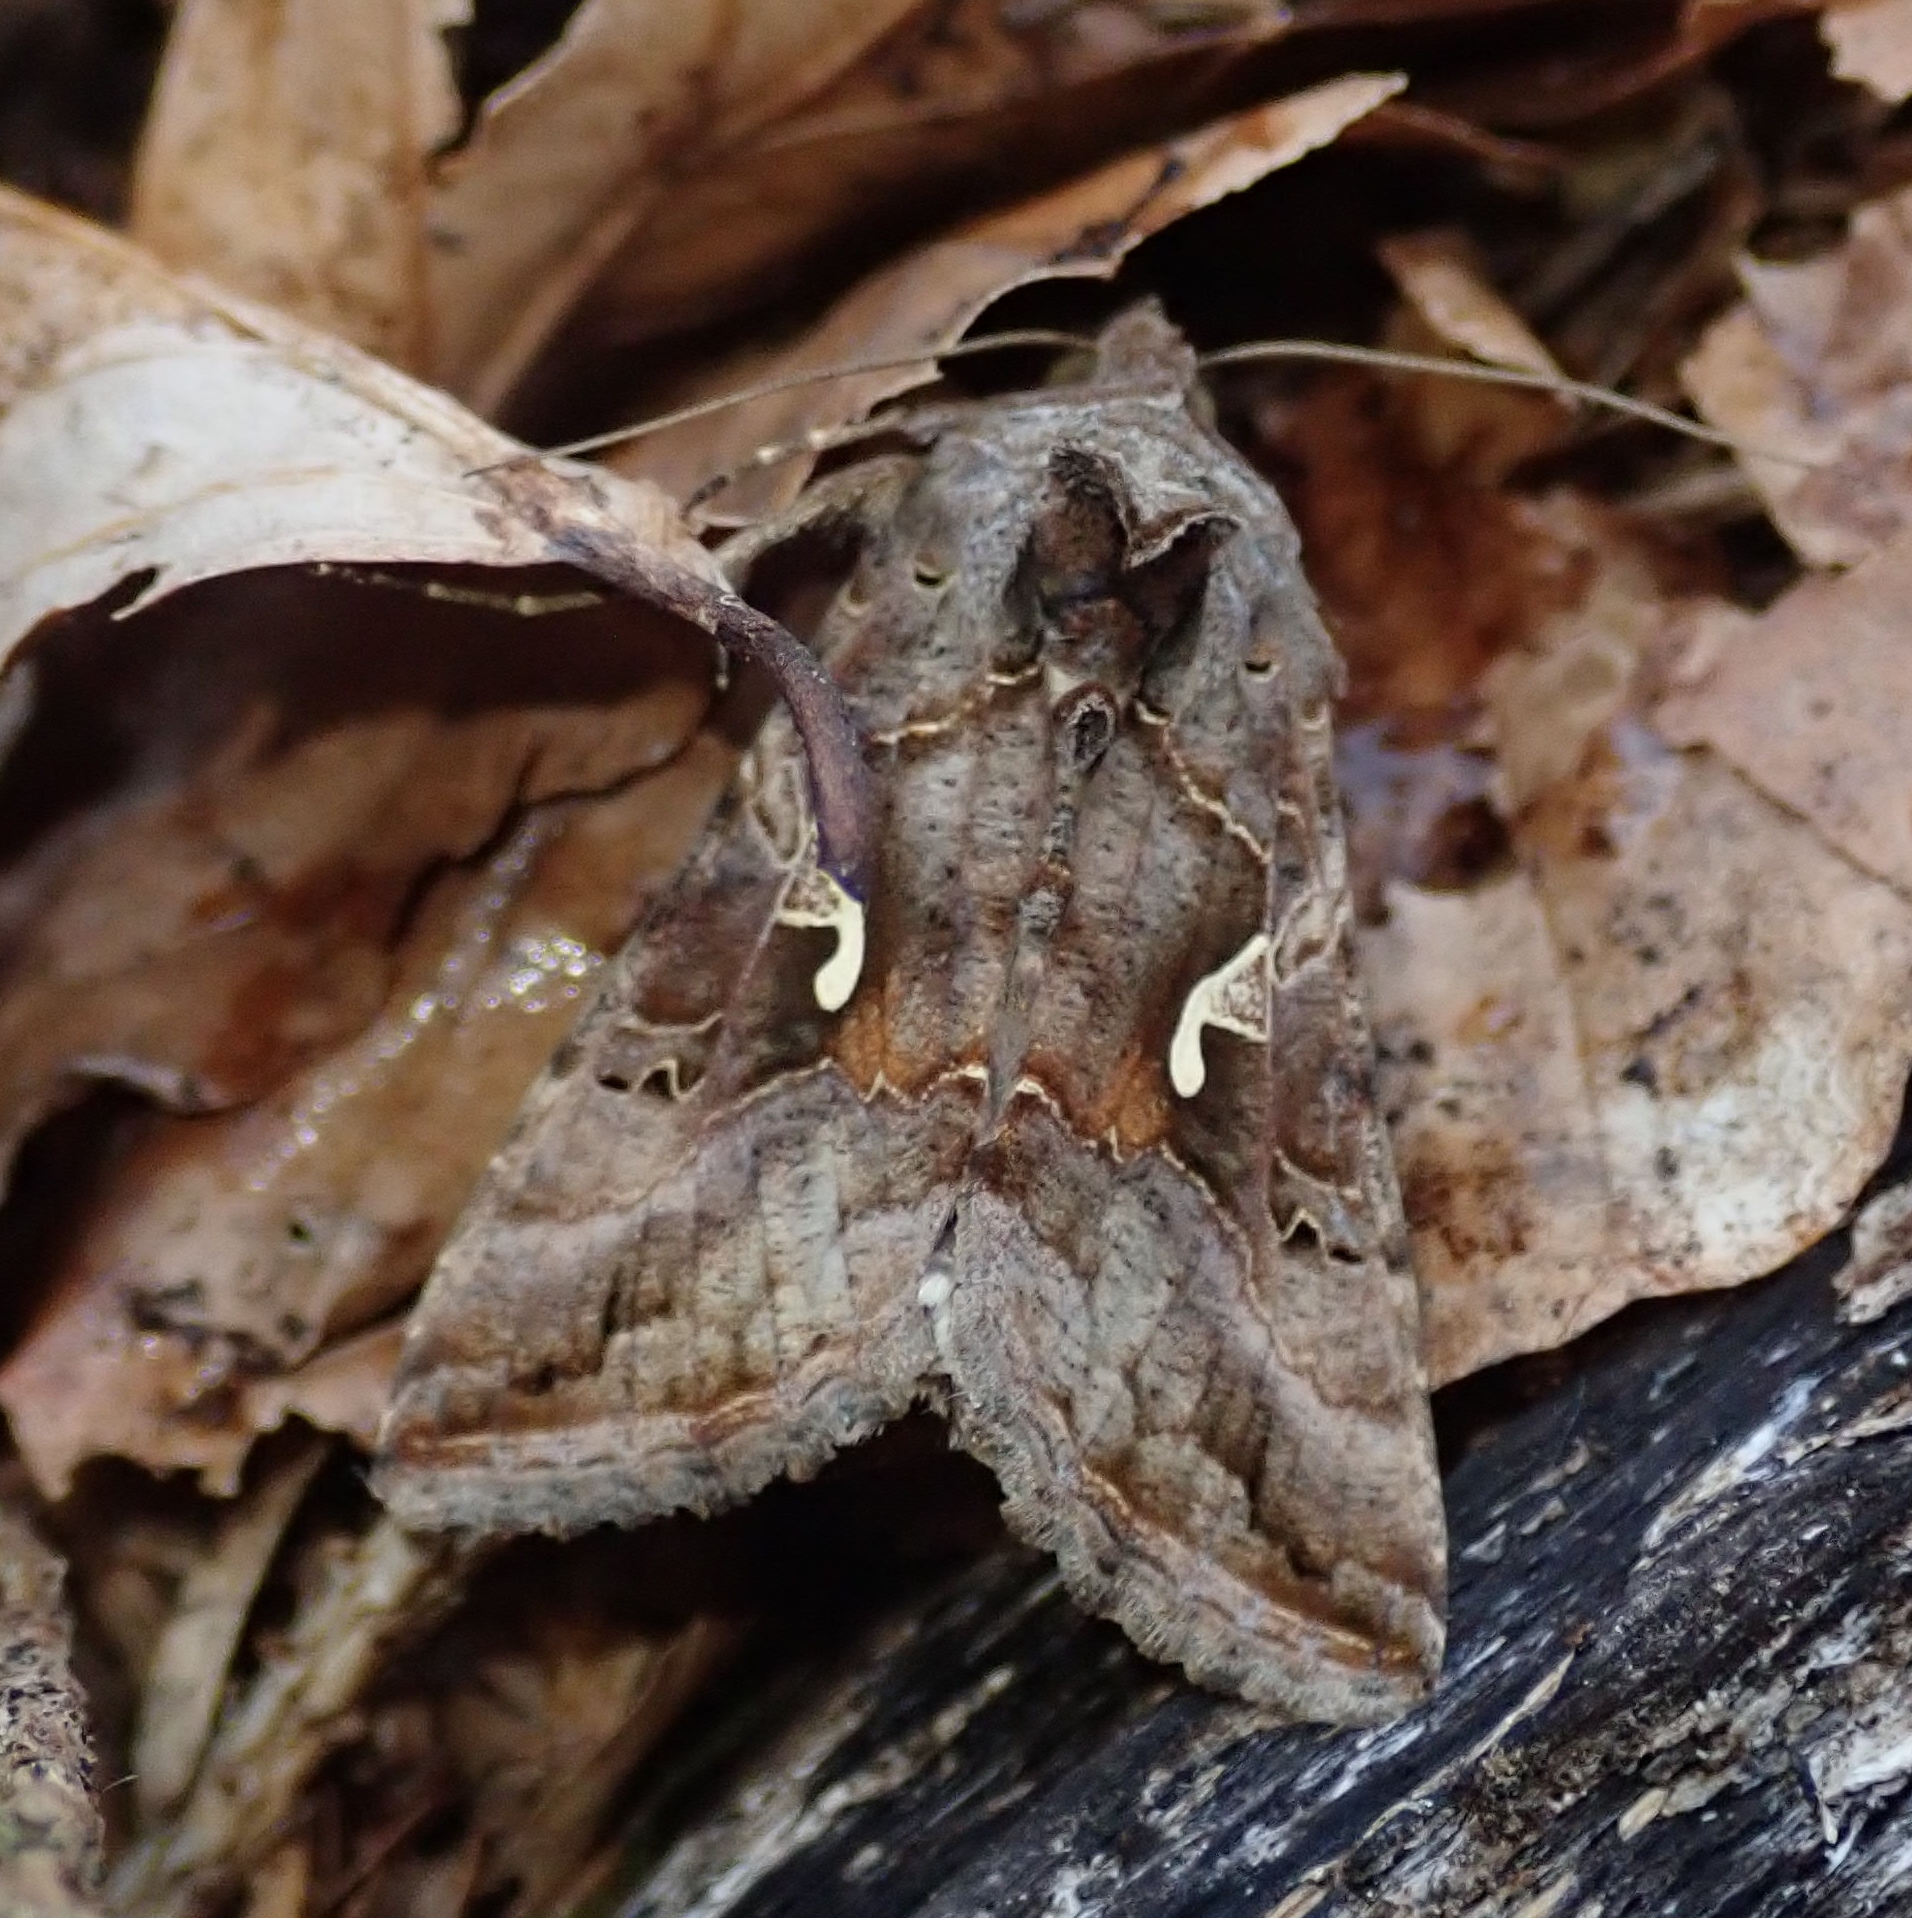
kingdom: Animalia
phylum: Arthropoda
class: Insecta
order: Lepidoptera
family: Noctuidae
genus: Autographa
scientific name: Autographa gamma
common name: Silver y
